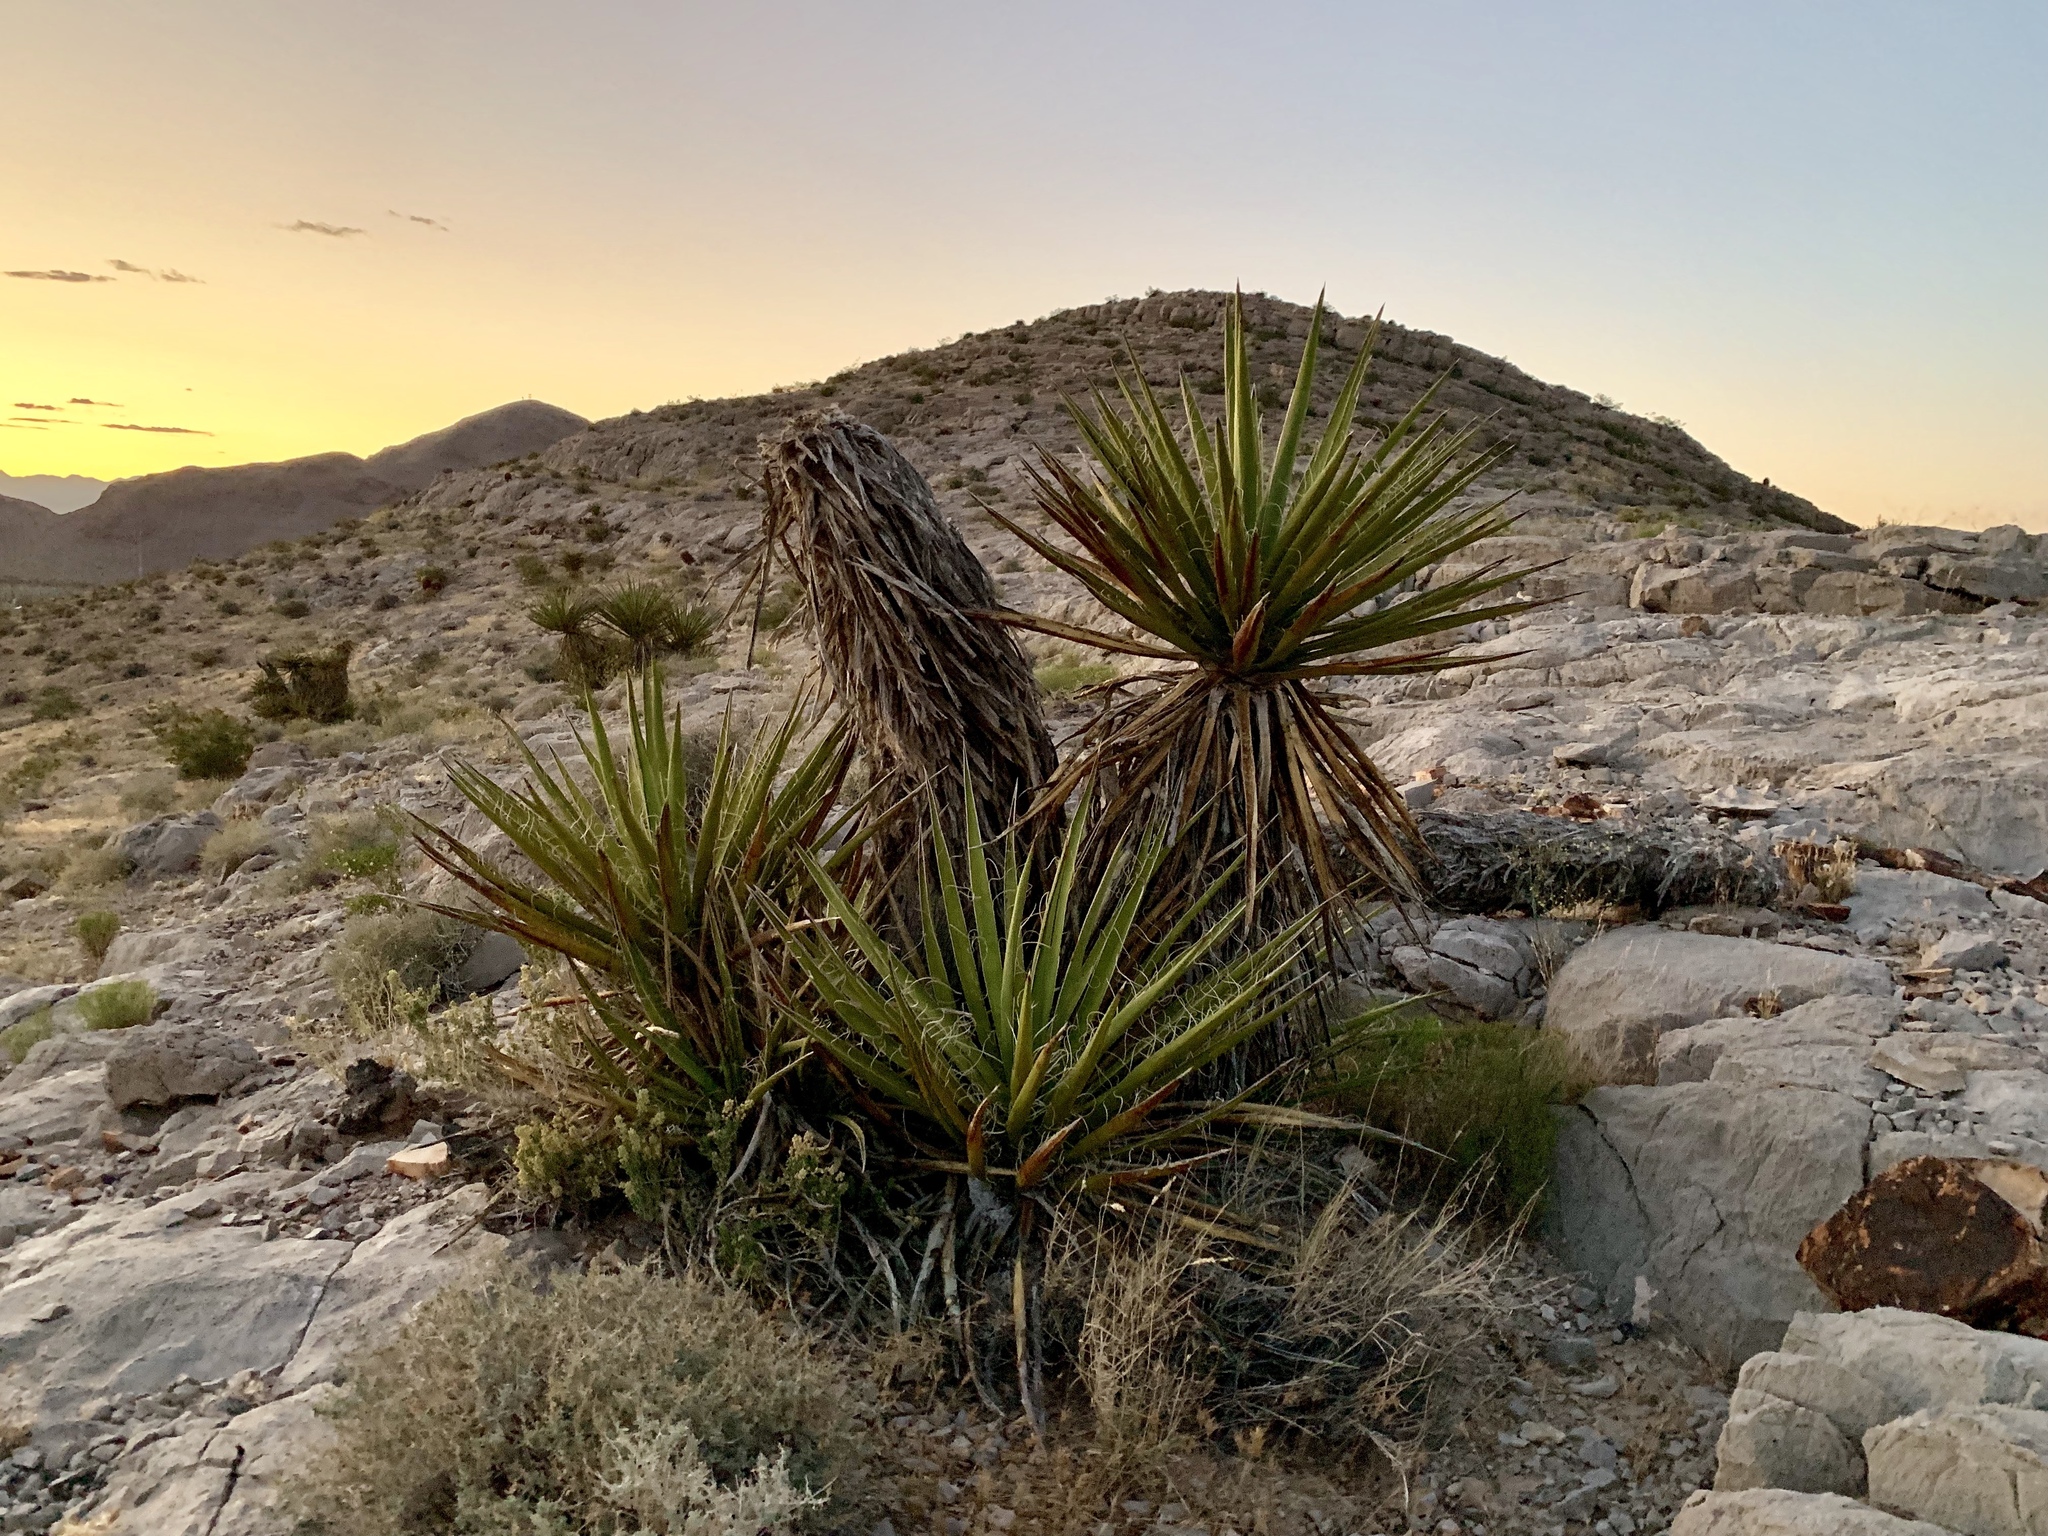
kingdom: Plantae
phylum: Tracheophyta
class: Liliopsida
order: Asparagales
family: Asparagaceae
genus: Yucca
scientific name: Yucca schidigera
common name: Mojave yucca
